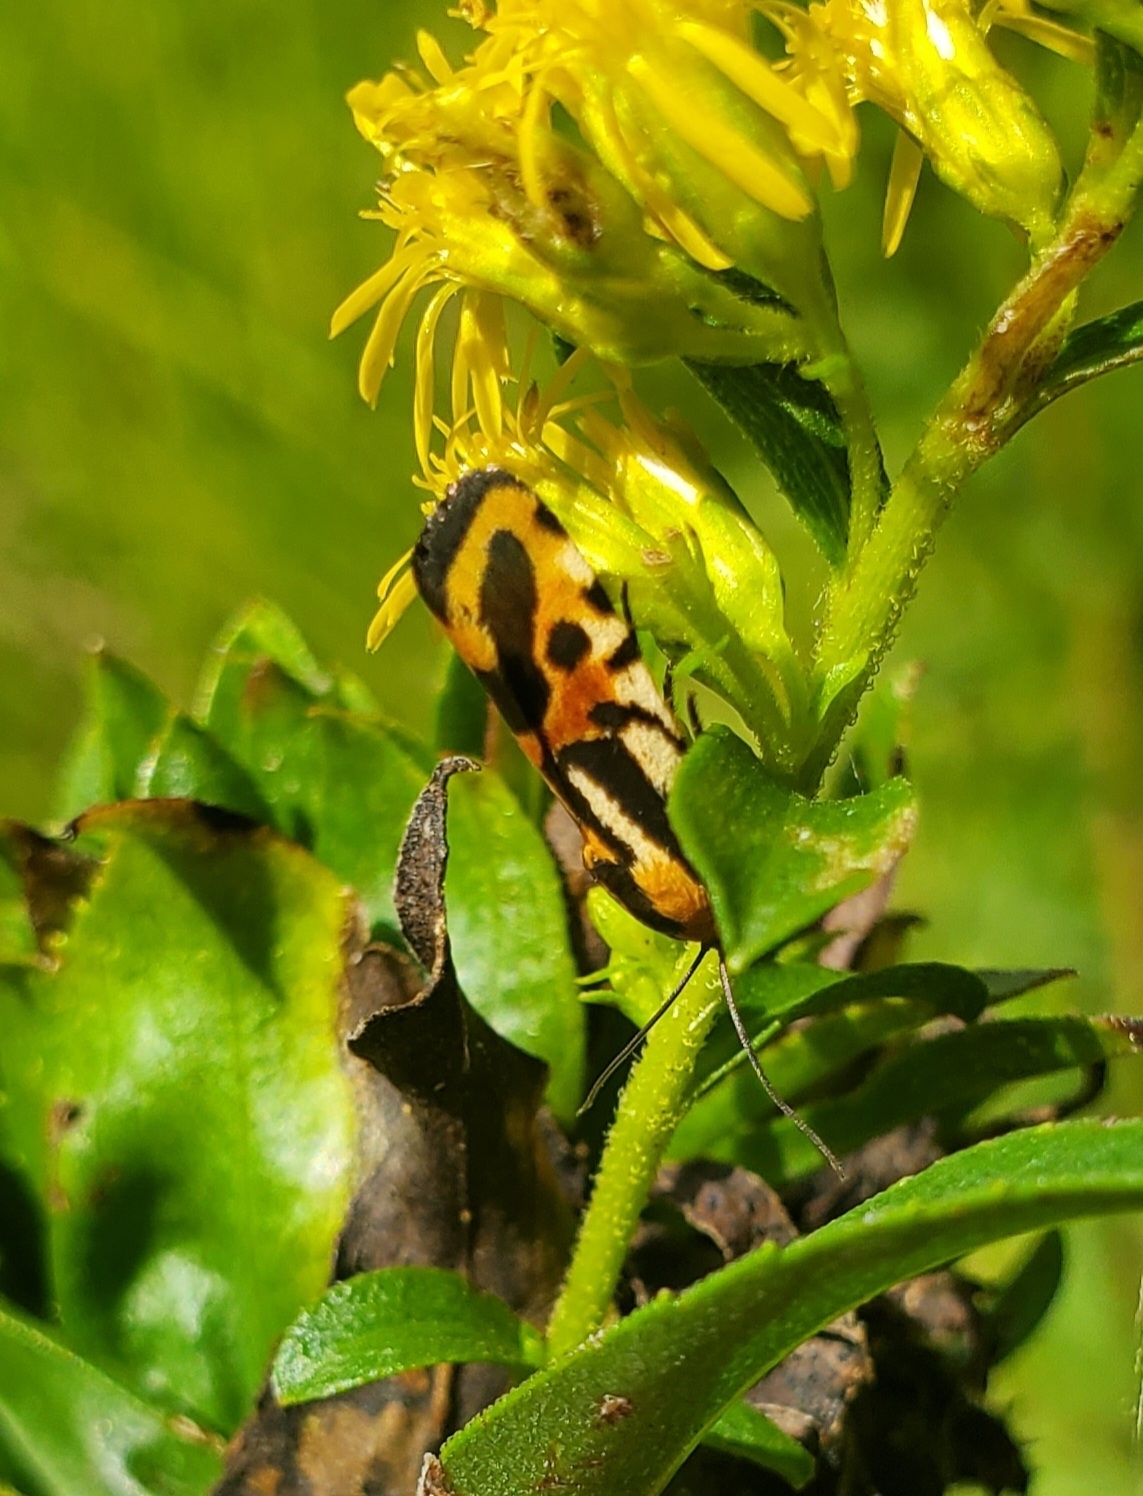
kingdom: Animalia
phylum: Arthropoda
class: Insecta
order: Lepidoptera
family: Noctuidae
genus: Acontia
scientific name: Acontia onagrus
